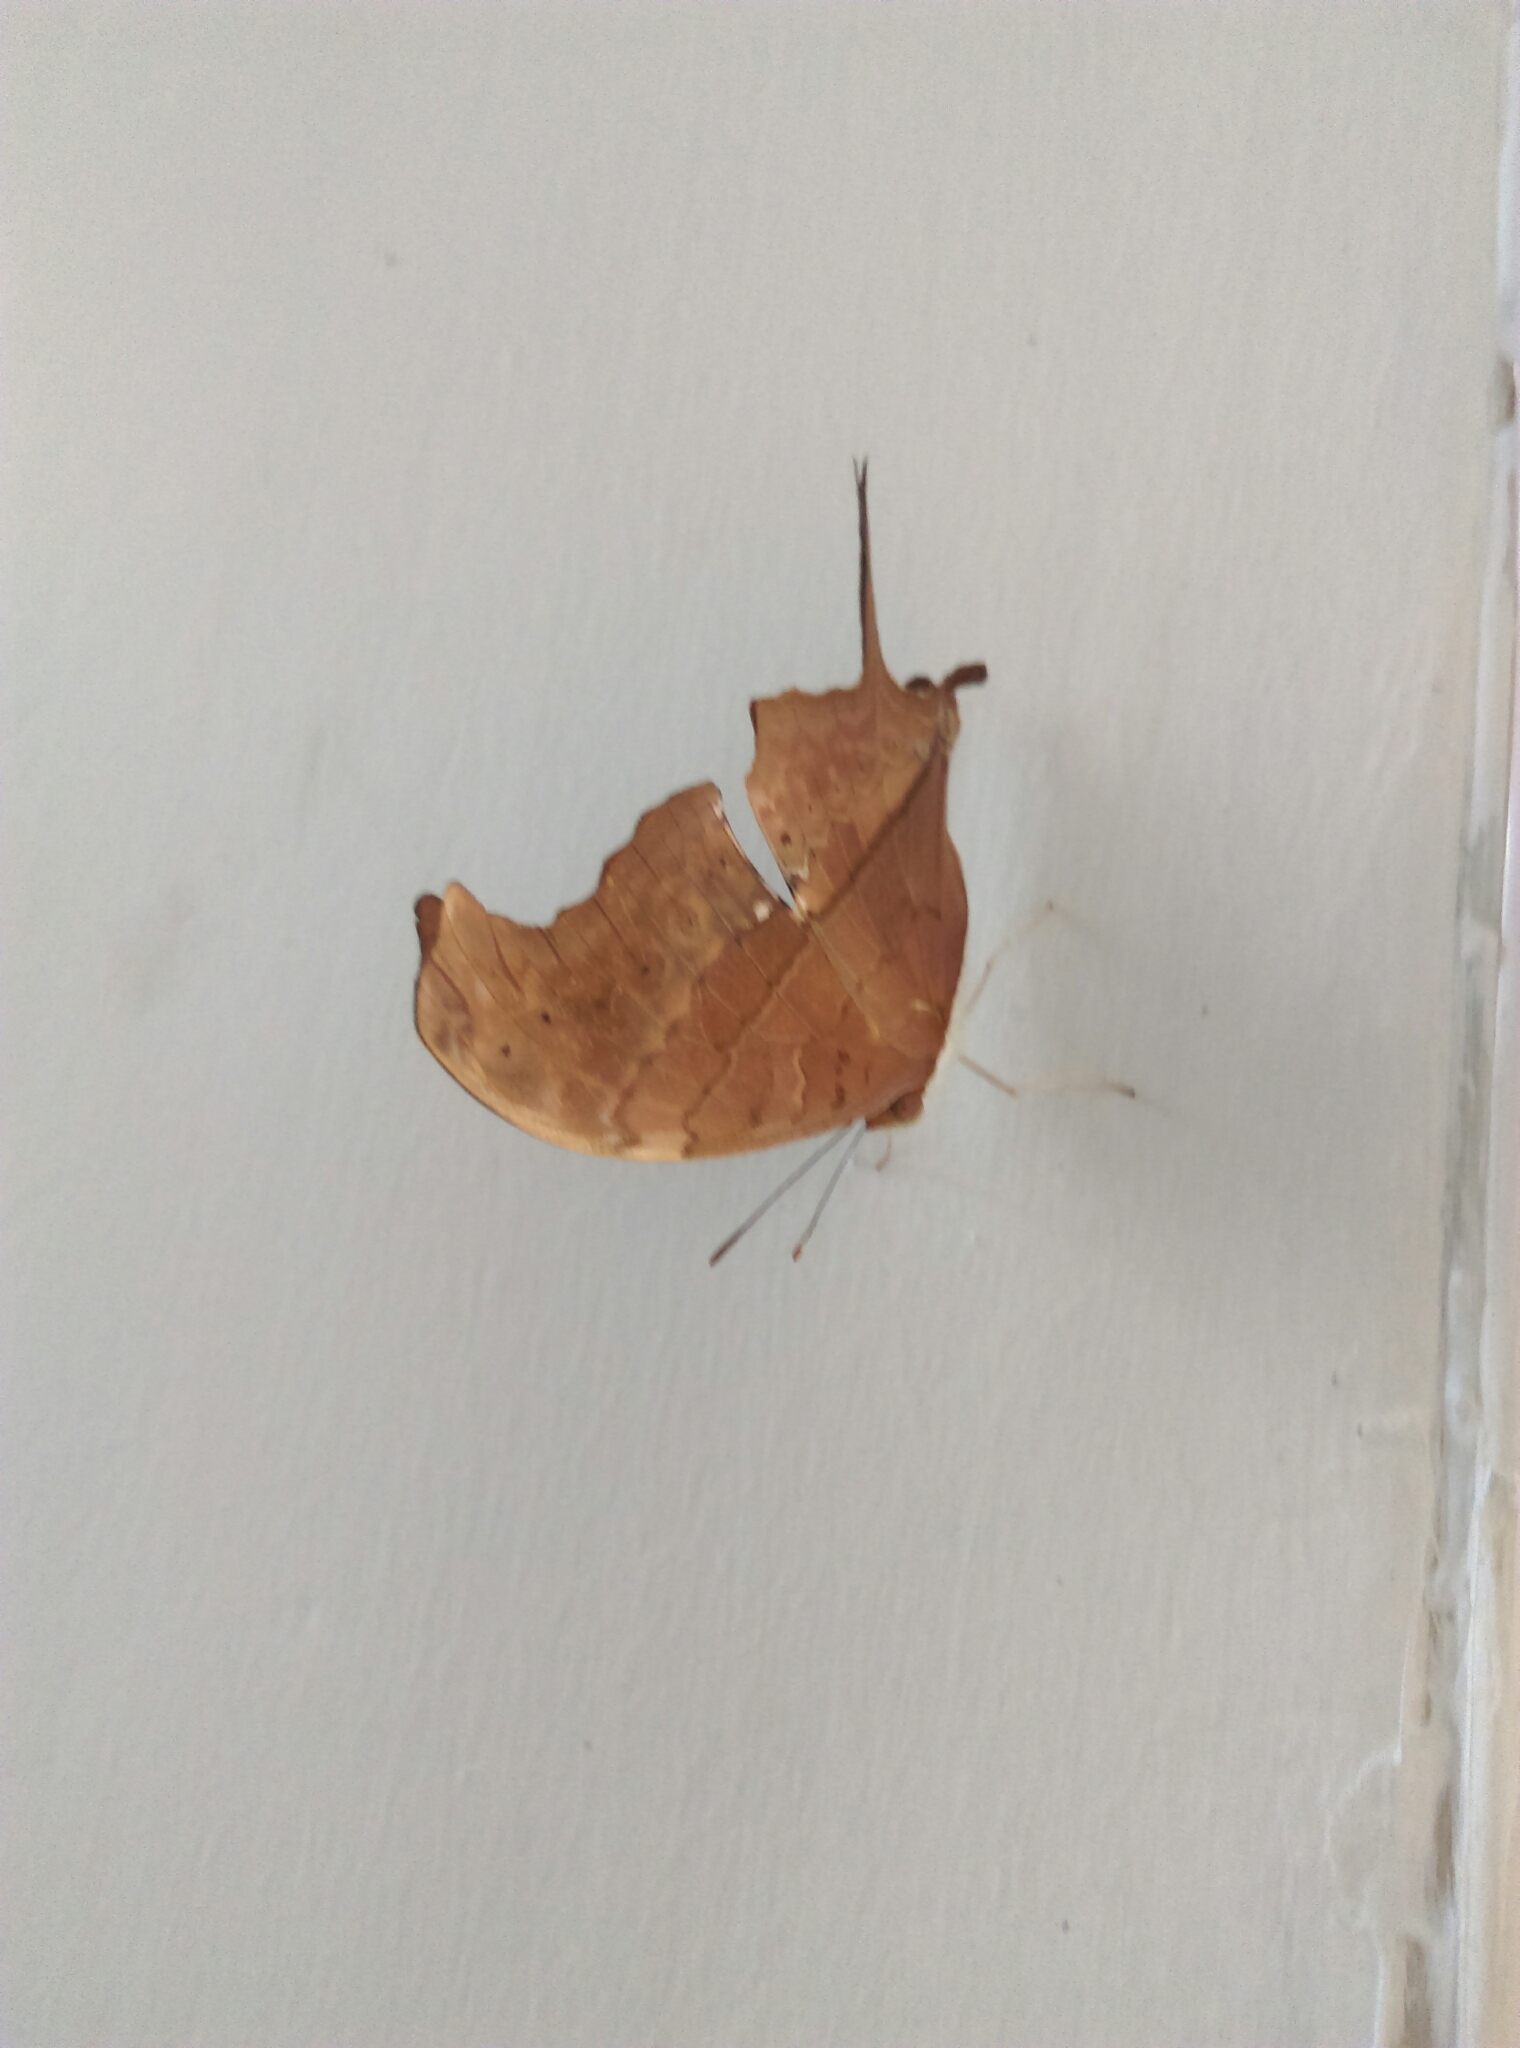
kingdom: Animalia
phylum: Arthropoda
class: Insecta
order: Lepidoptera
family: Nymphalidae
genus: Marpesia
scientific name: Marpesia petreus
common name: Red dagger wing
